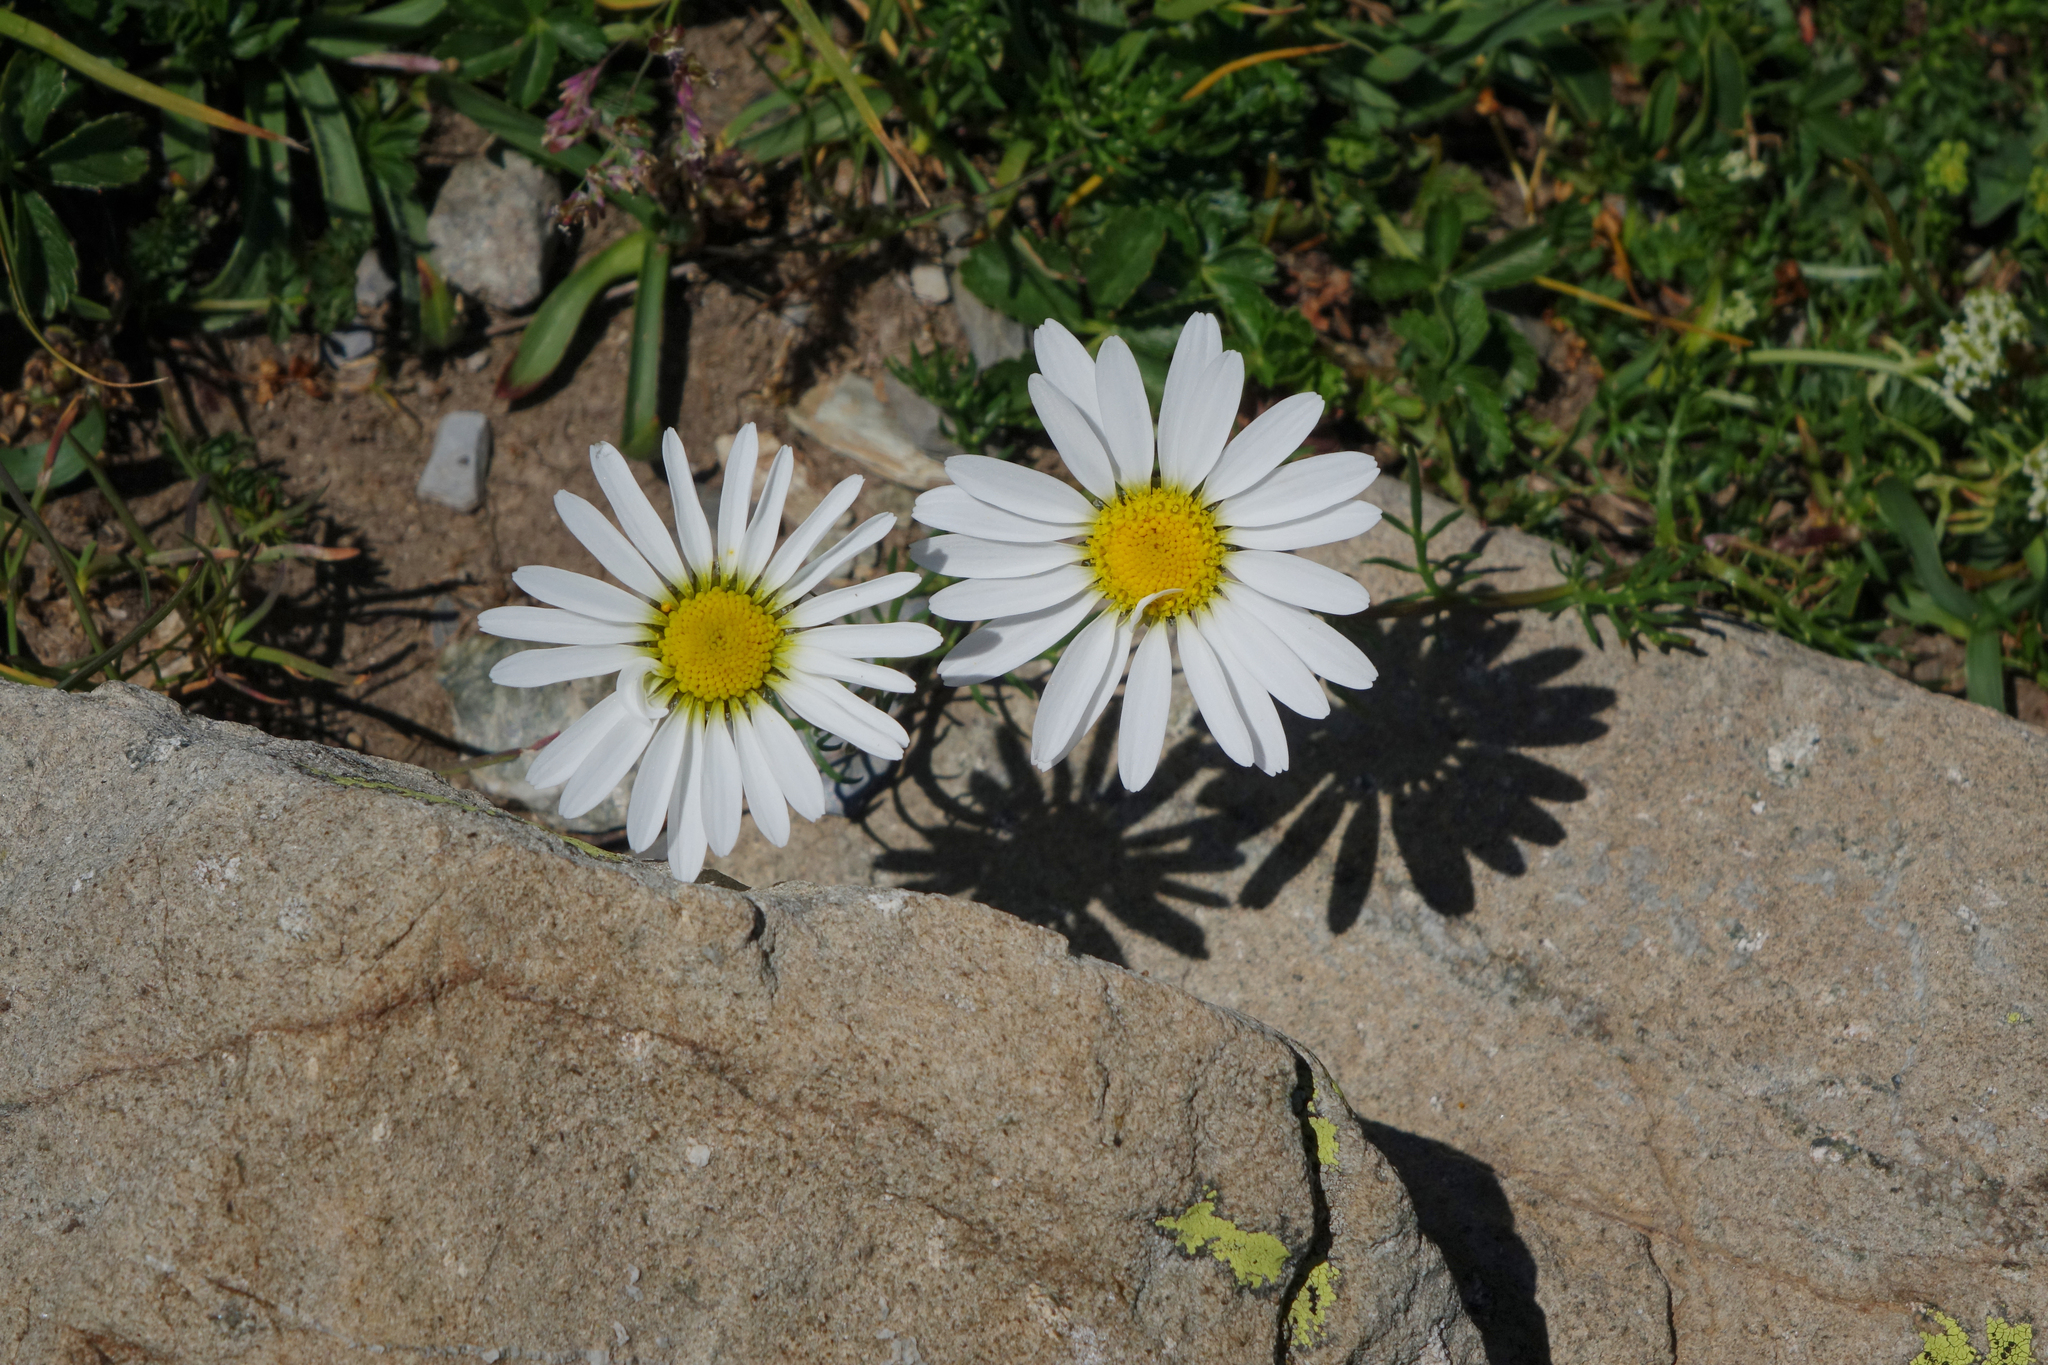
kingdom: Plantae
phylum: Tracheophyta
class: Magnoliopsida
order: Asterales
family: Asteraceae
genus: Tripleurospermum
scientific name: Tripleurospermum caucasicum
